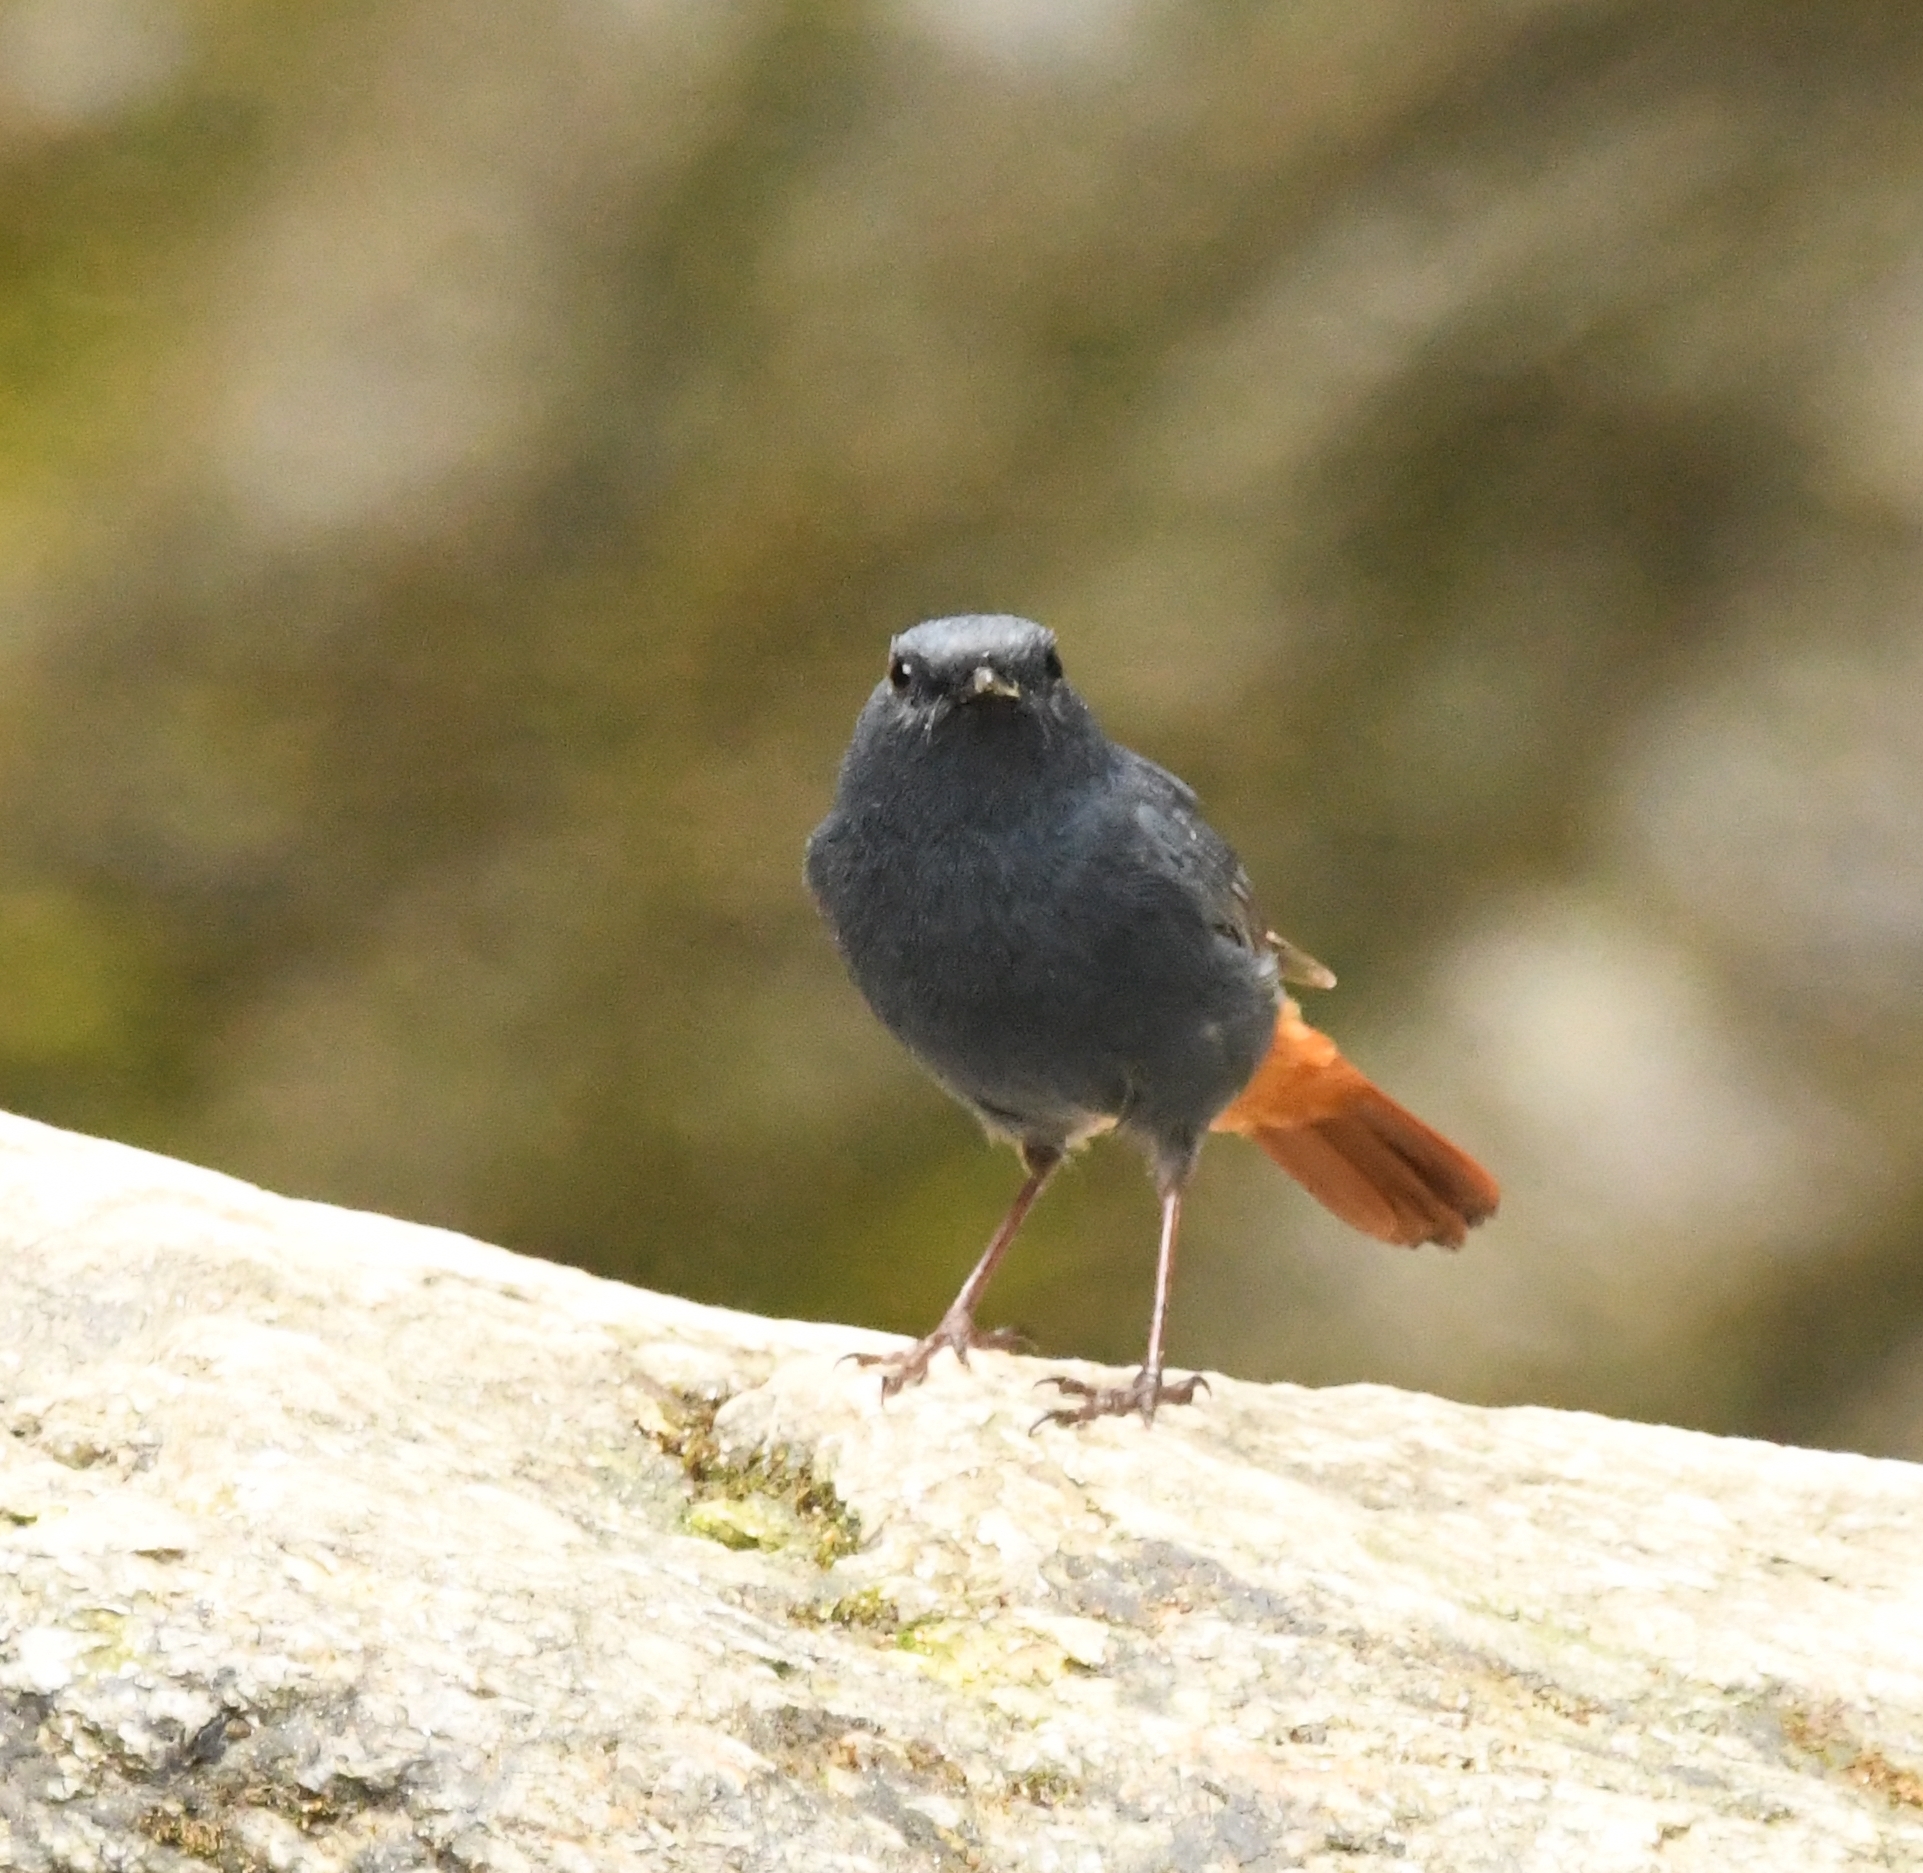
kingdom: Animalia
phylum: Chordata
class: Aves
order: Passeriformes
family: Muscicapidae
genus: Phoenicurus
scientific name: Phoenicurus fuliginosus
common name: Plumbeous water redstart
